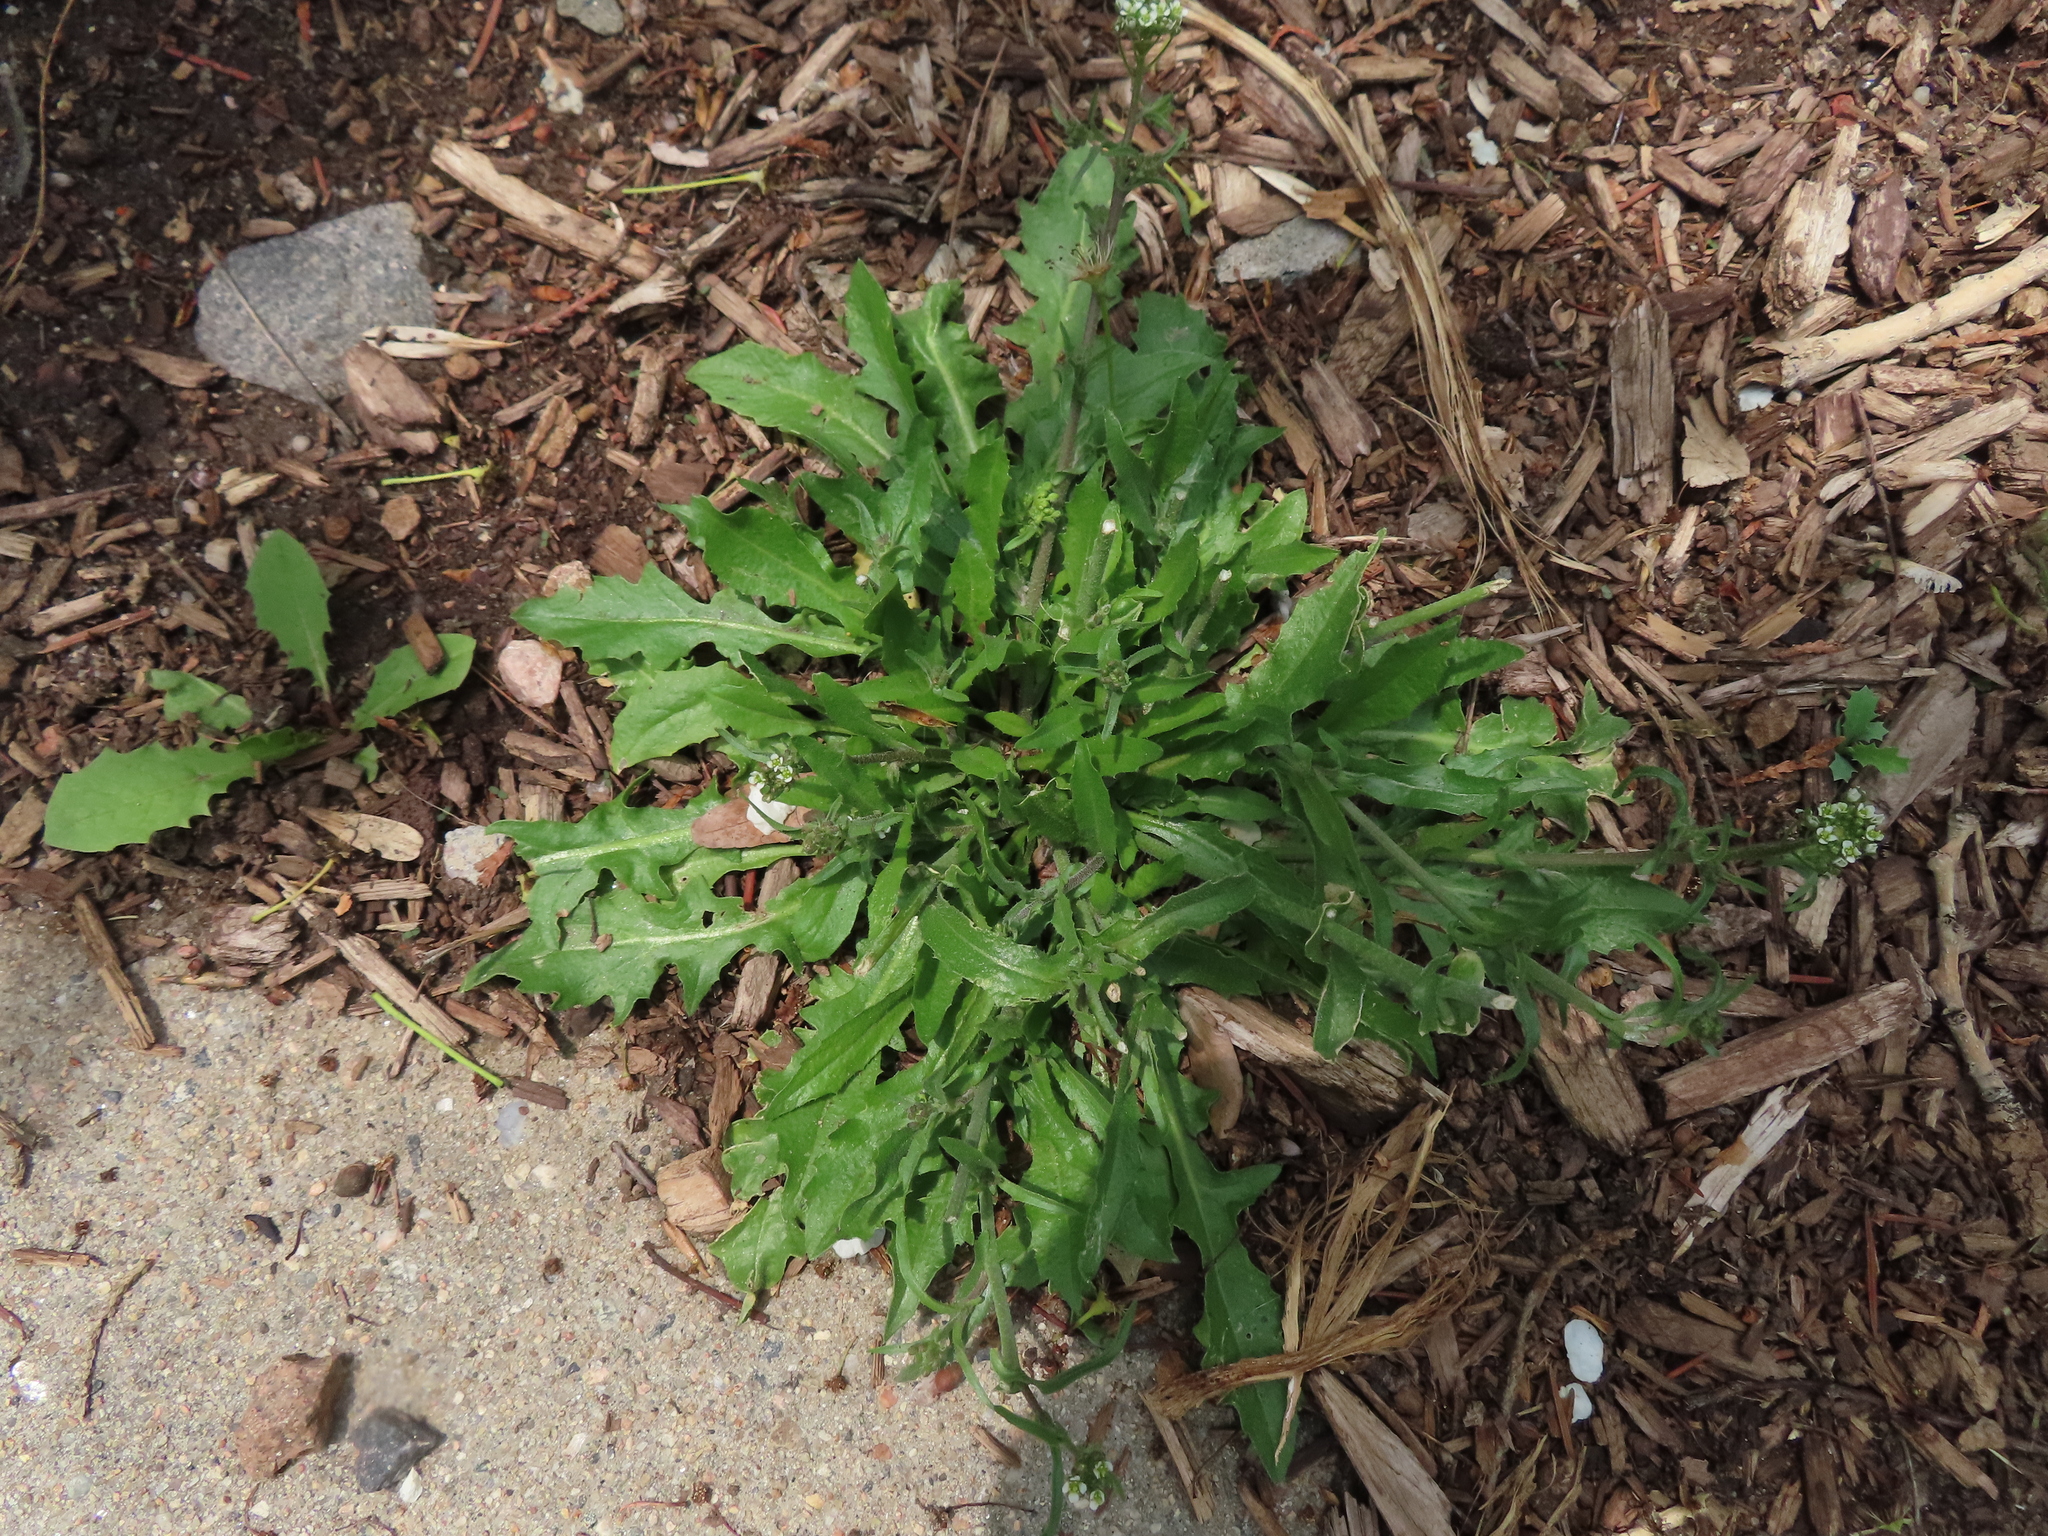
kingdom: Plantae
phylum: Tracheophyta
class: Magnoliopsida
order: Brassicales
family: Brassicaceae
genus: Capsella
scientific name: Capsella bursa-pastoris
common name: Shepherd's purse
